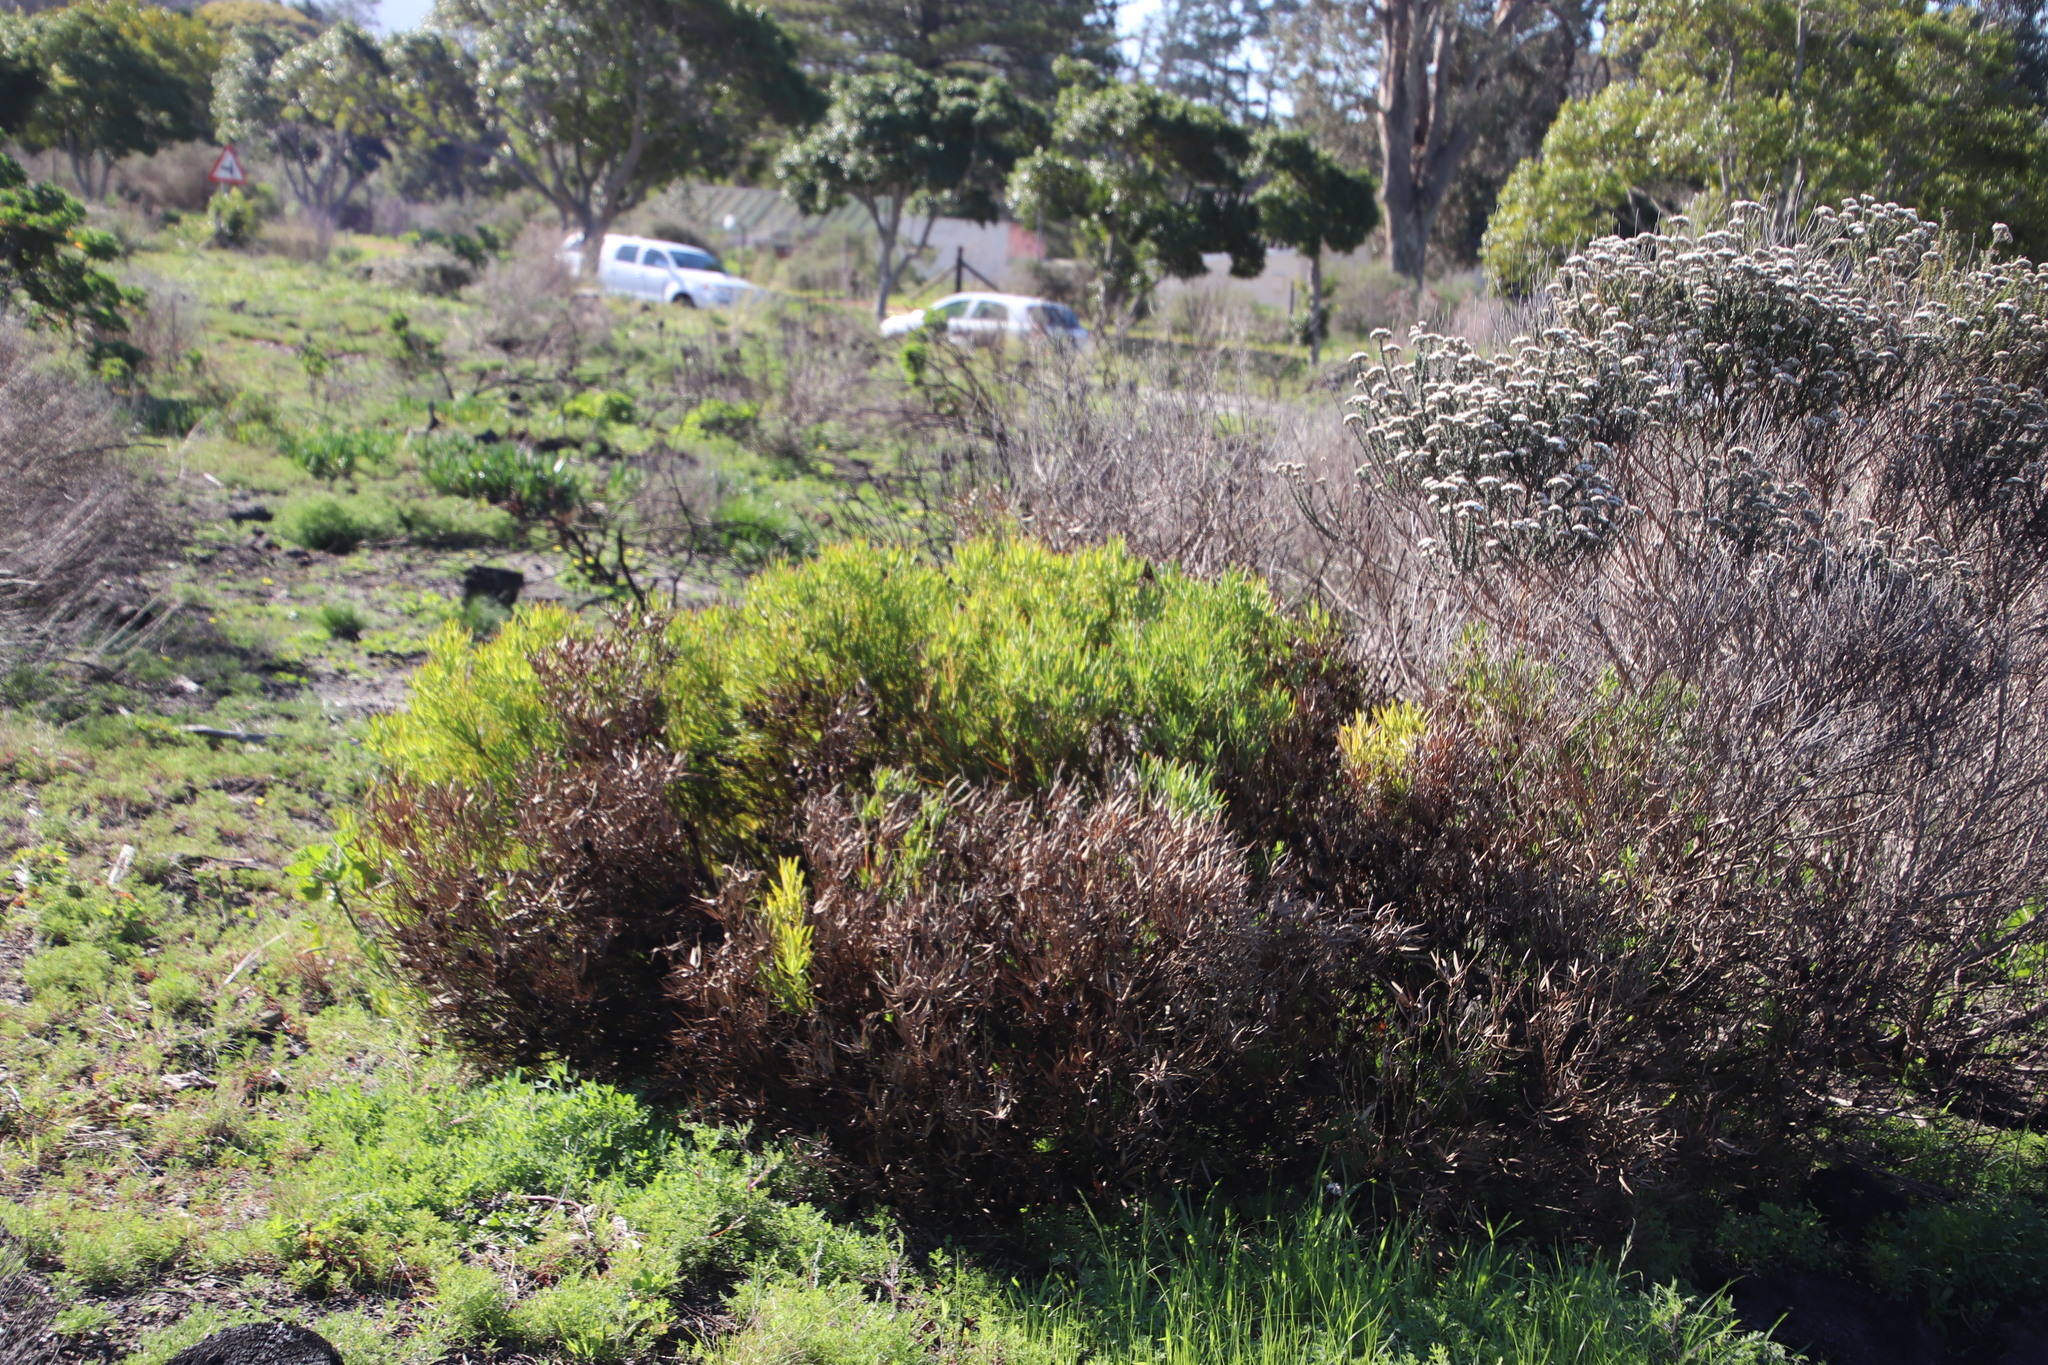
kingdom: Plantae
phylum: Tracheophyta
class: Magnoliopsida
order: Proteales
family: Proteaceae
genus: Leucadendron
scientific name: Leucadendron salignum
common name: Common sunshine conebush
